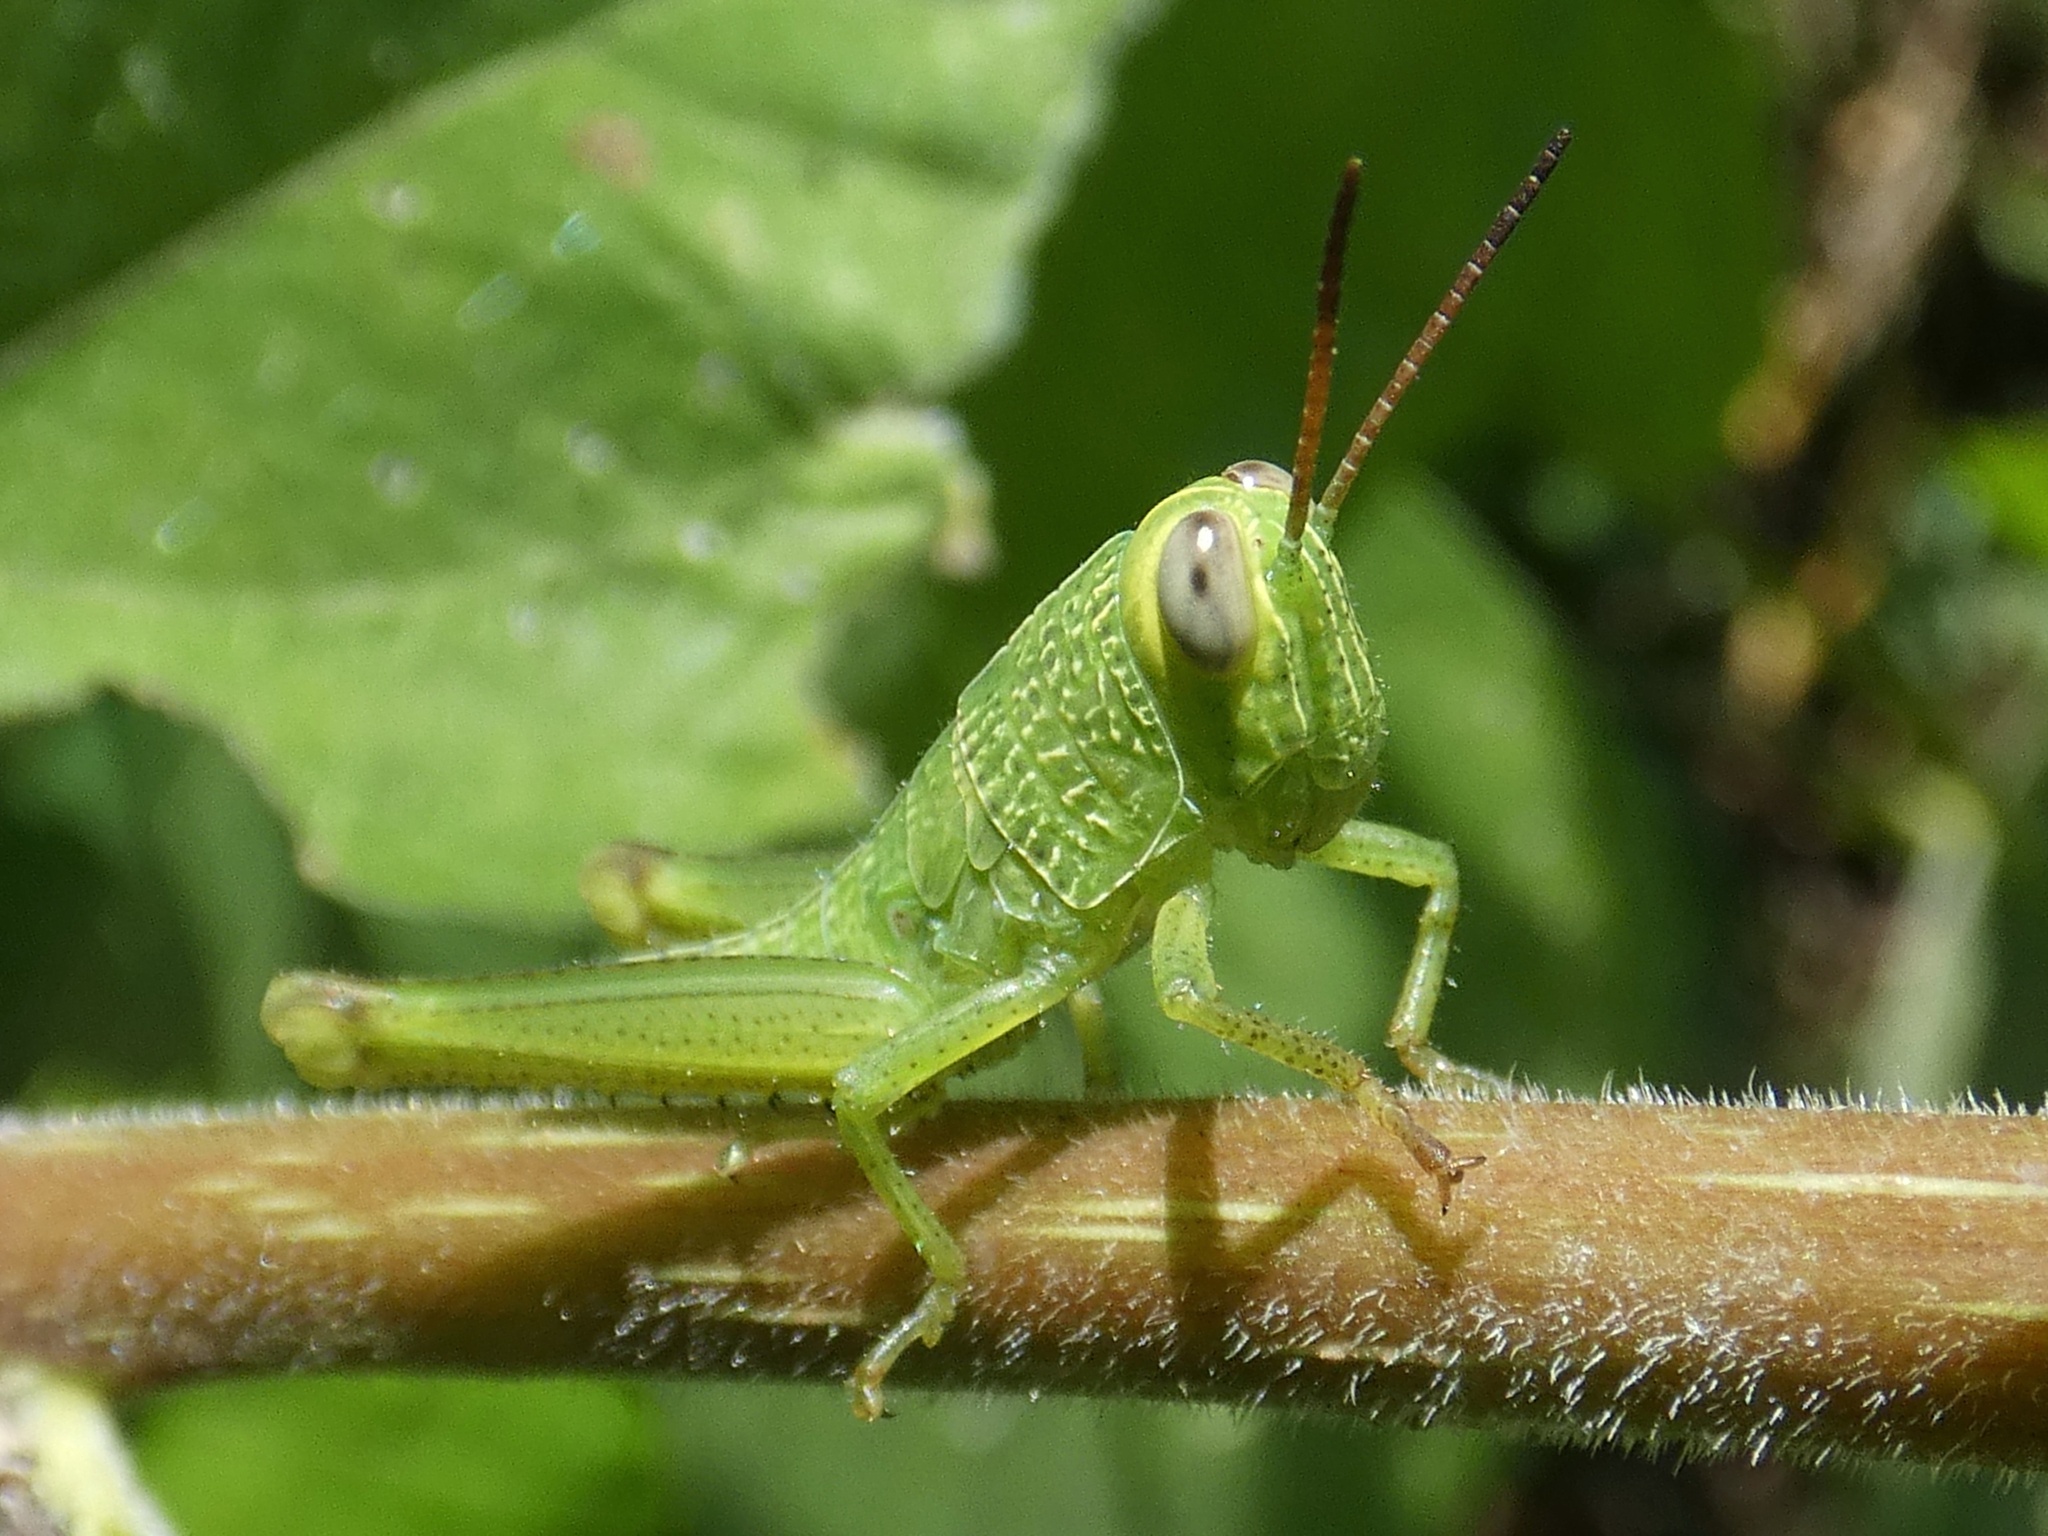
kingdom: Animalia
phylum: Arthropoda
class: Insecta
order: Orthoptera
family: Acrididae
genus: Melicodes
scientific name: Melicodes tenebrosus
